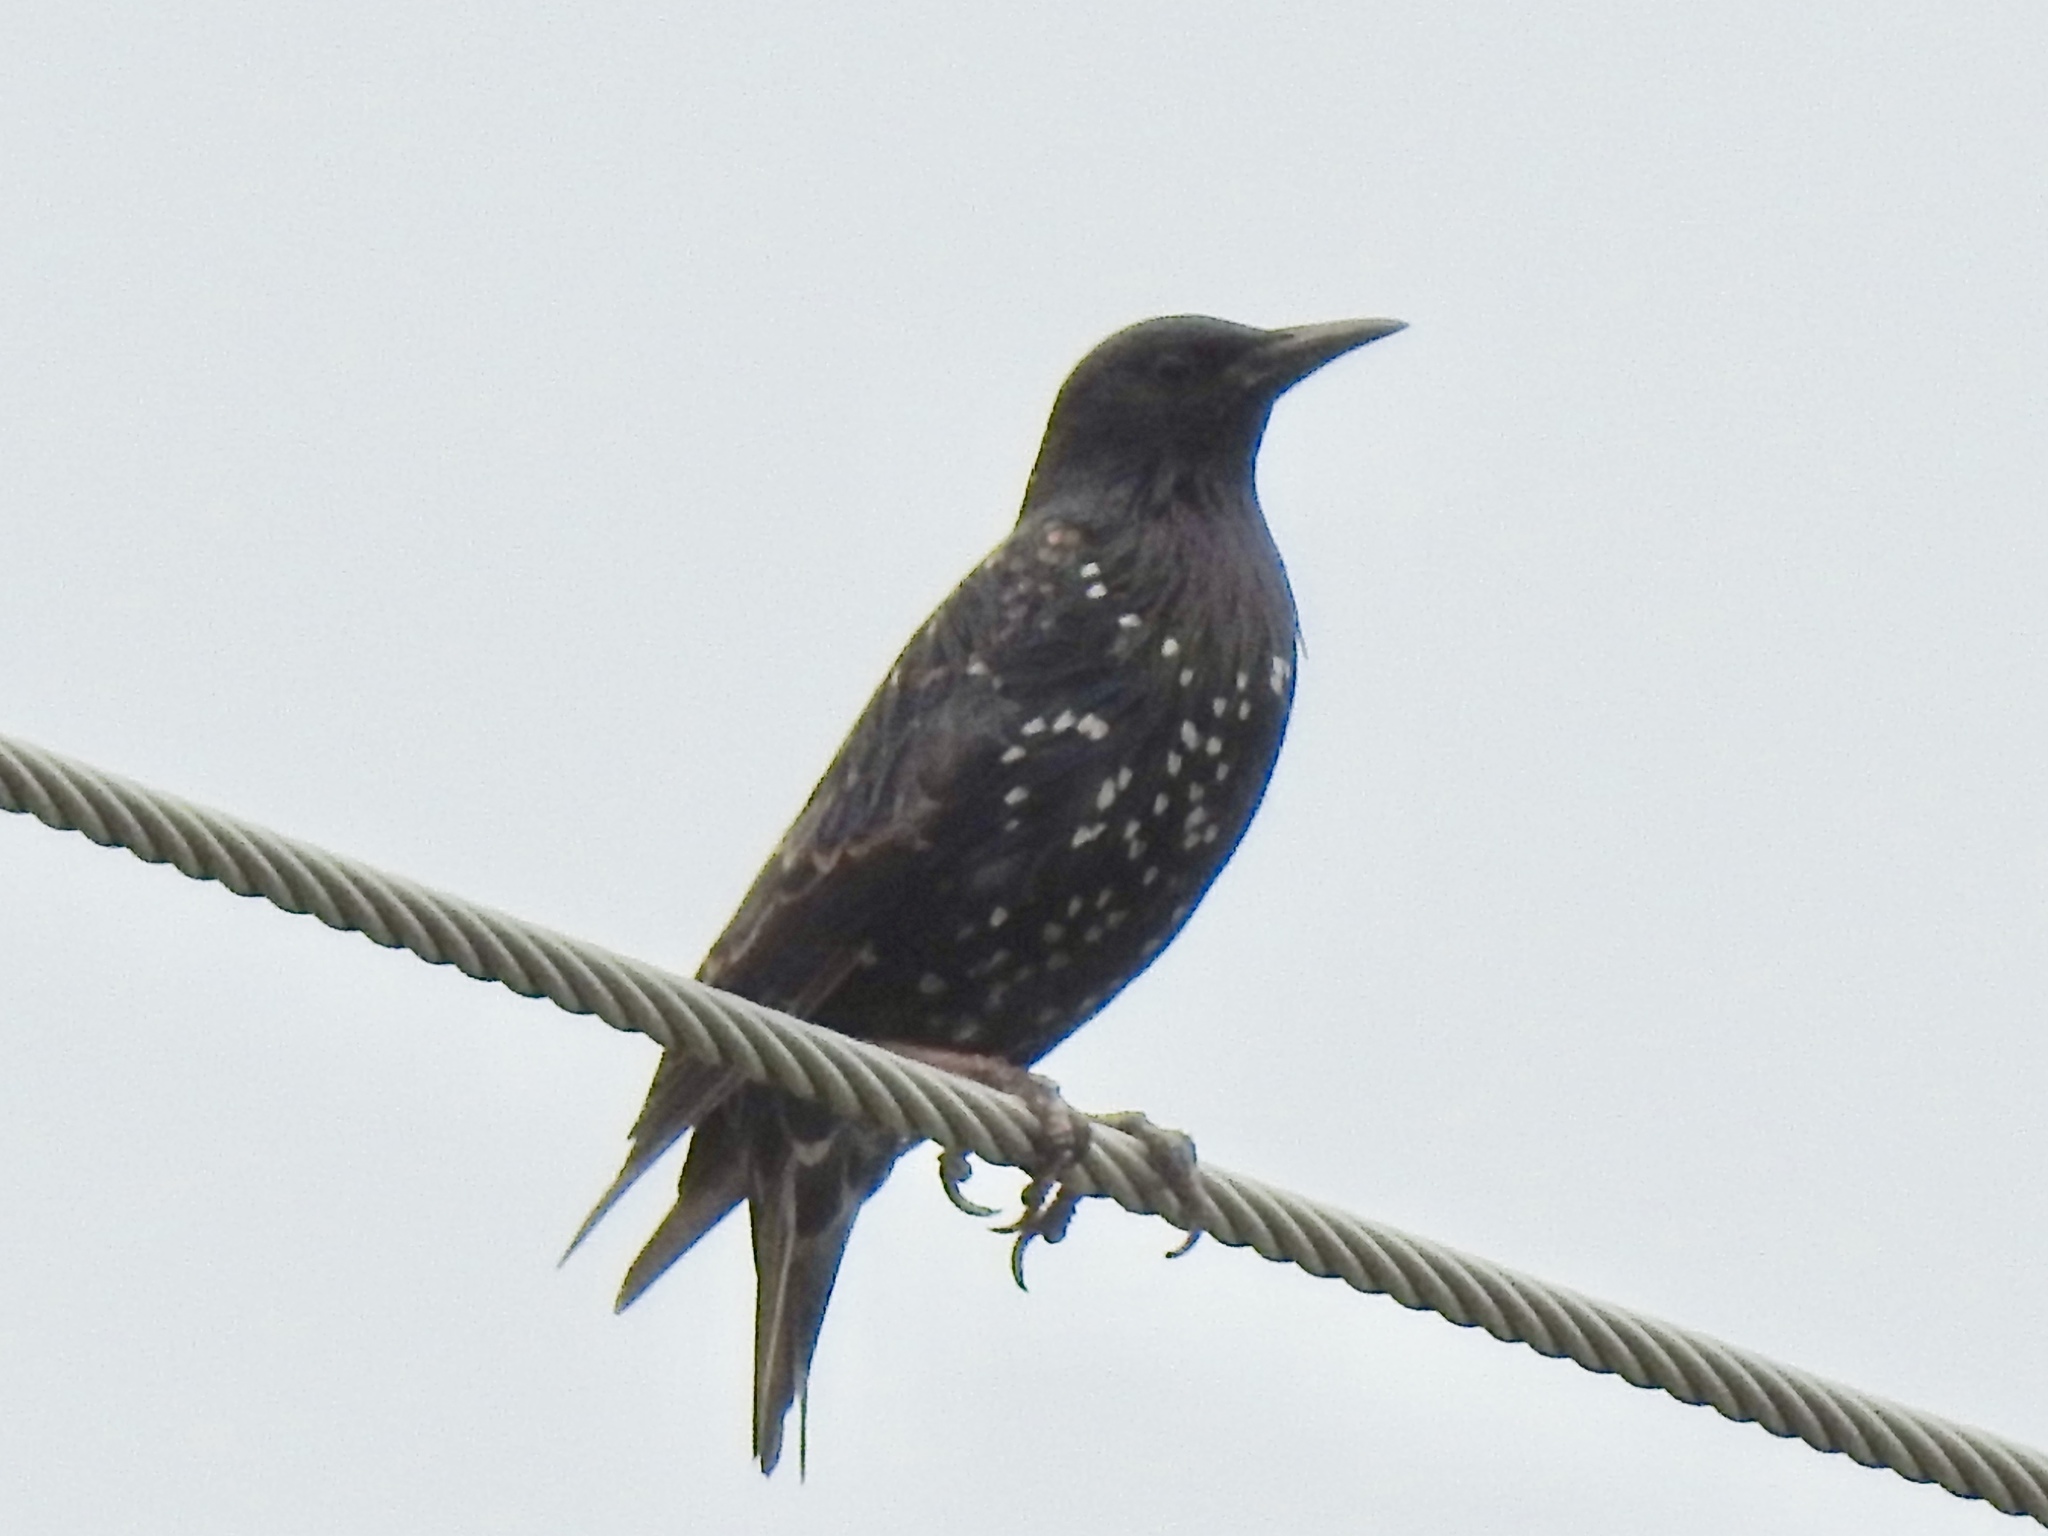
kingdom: Animalia
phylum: Chordata
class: Aves
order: Passeriformes
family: Sturnidae
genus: Sturnus
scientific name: Sturnus vulgaris
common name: Common starling
